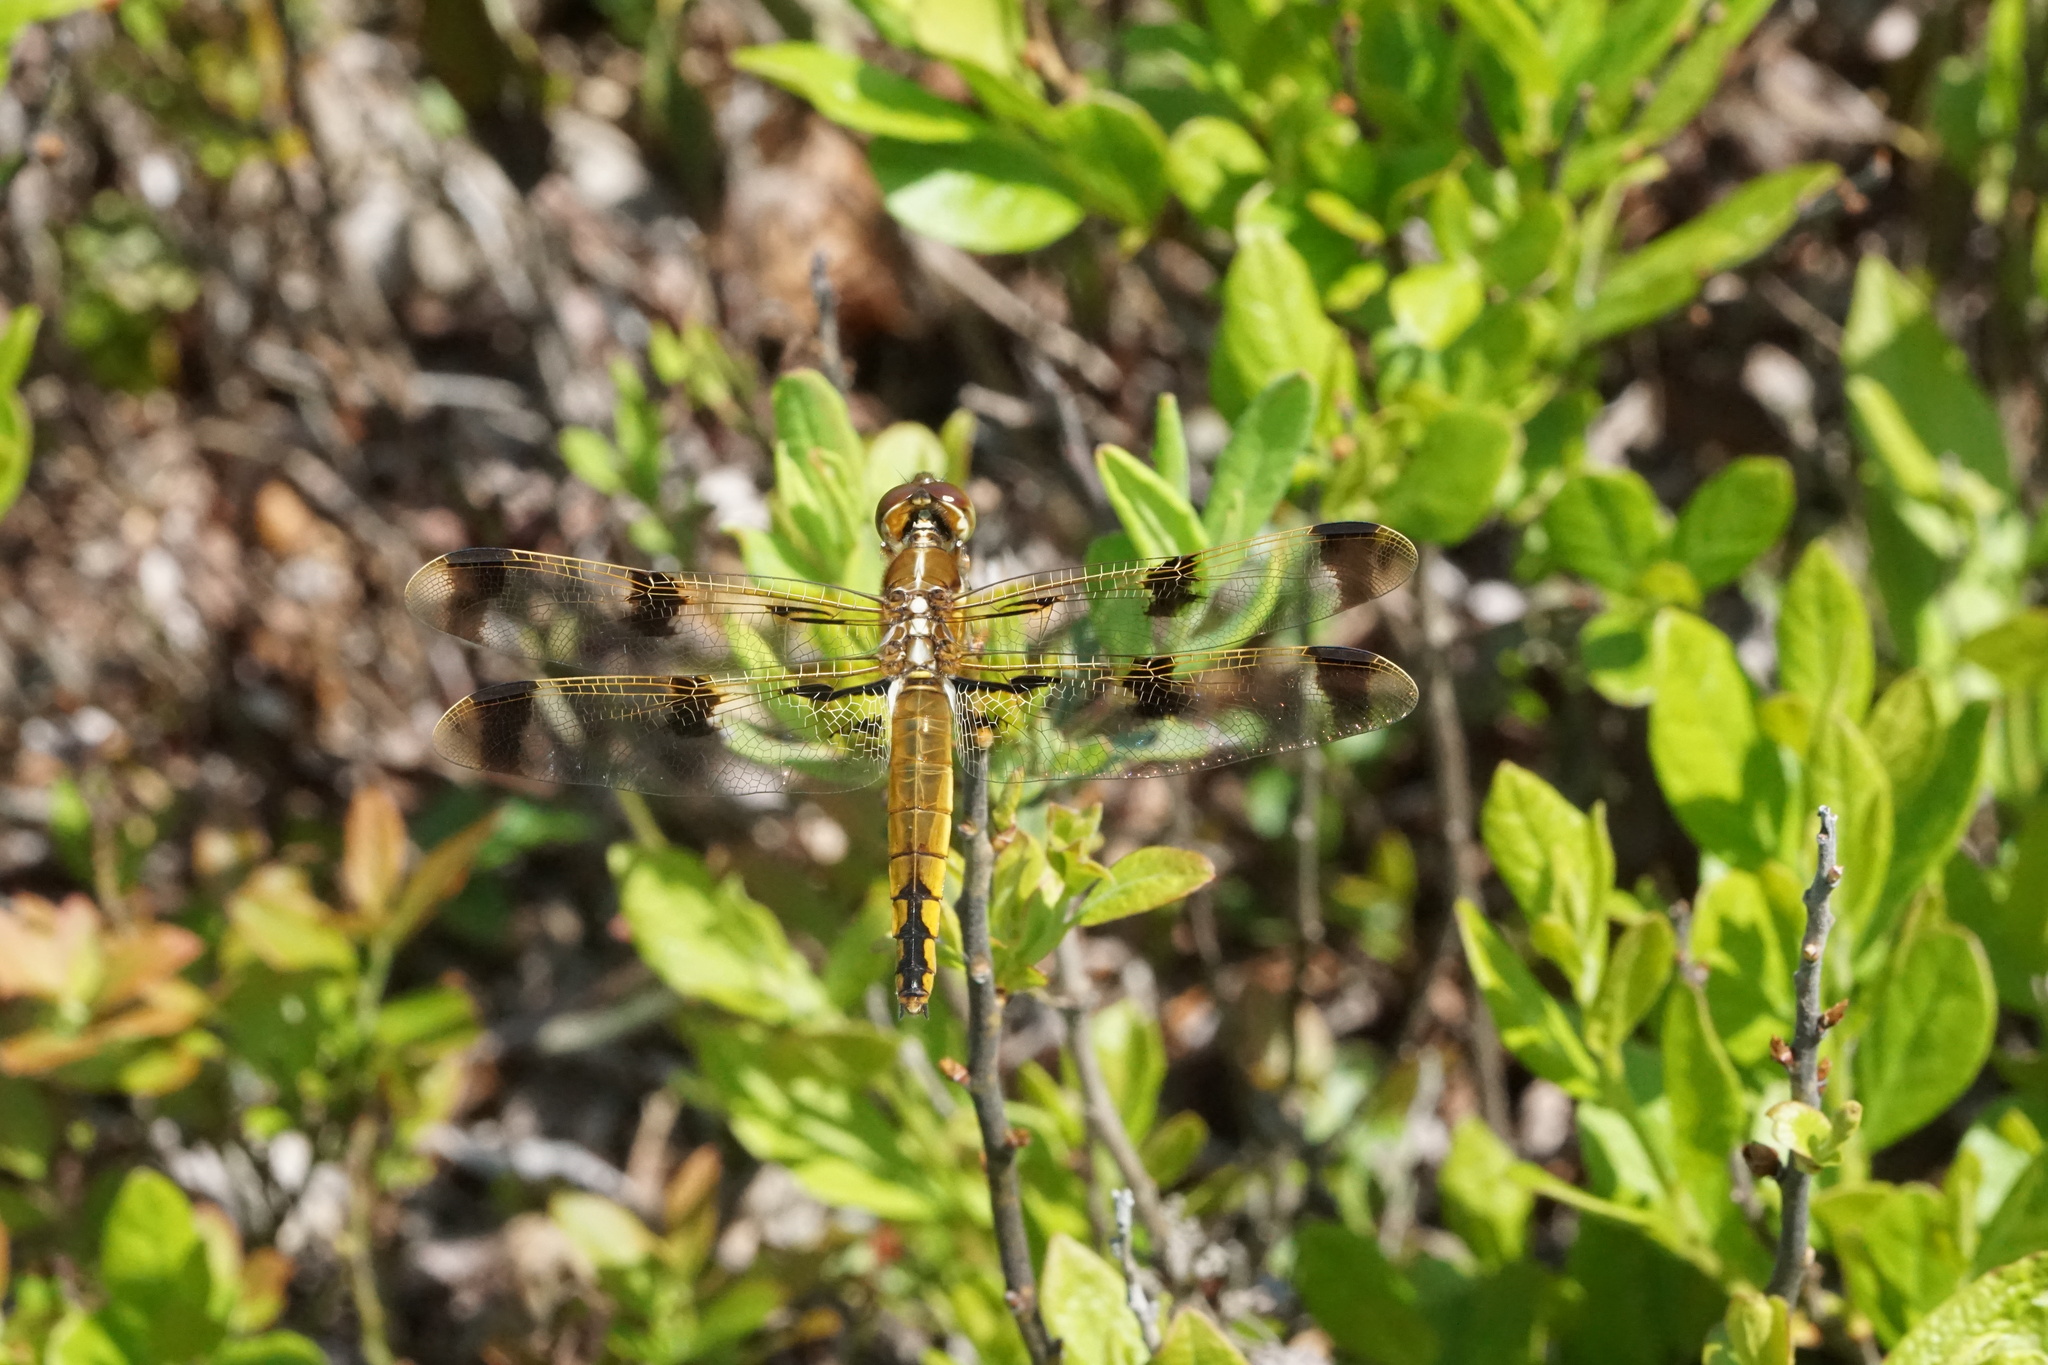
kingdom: Animalia
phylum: Arthropoda
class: Insecta
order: Odonata
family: Libellulidae
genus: Libellula
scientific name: Libellula semifasciata
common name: Painted skimmer
